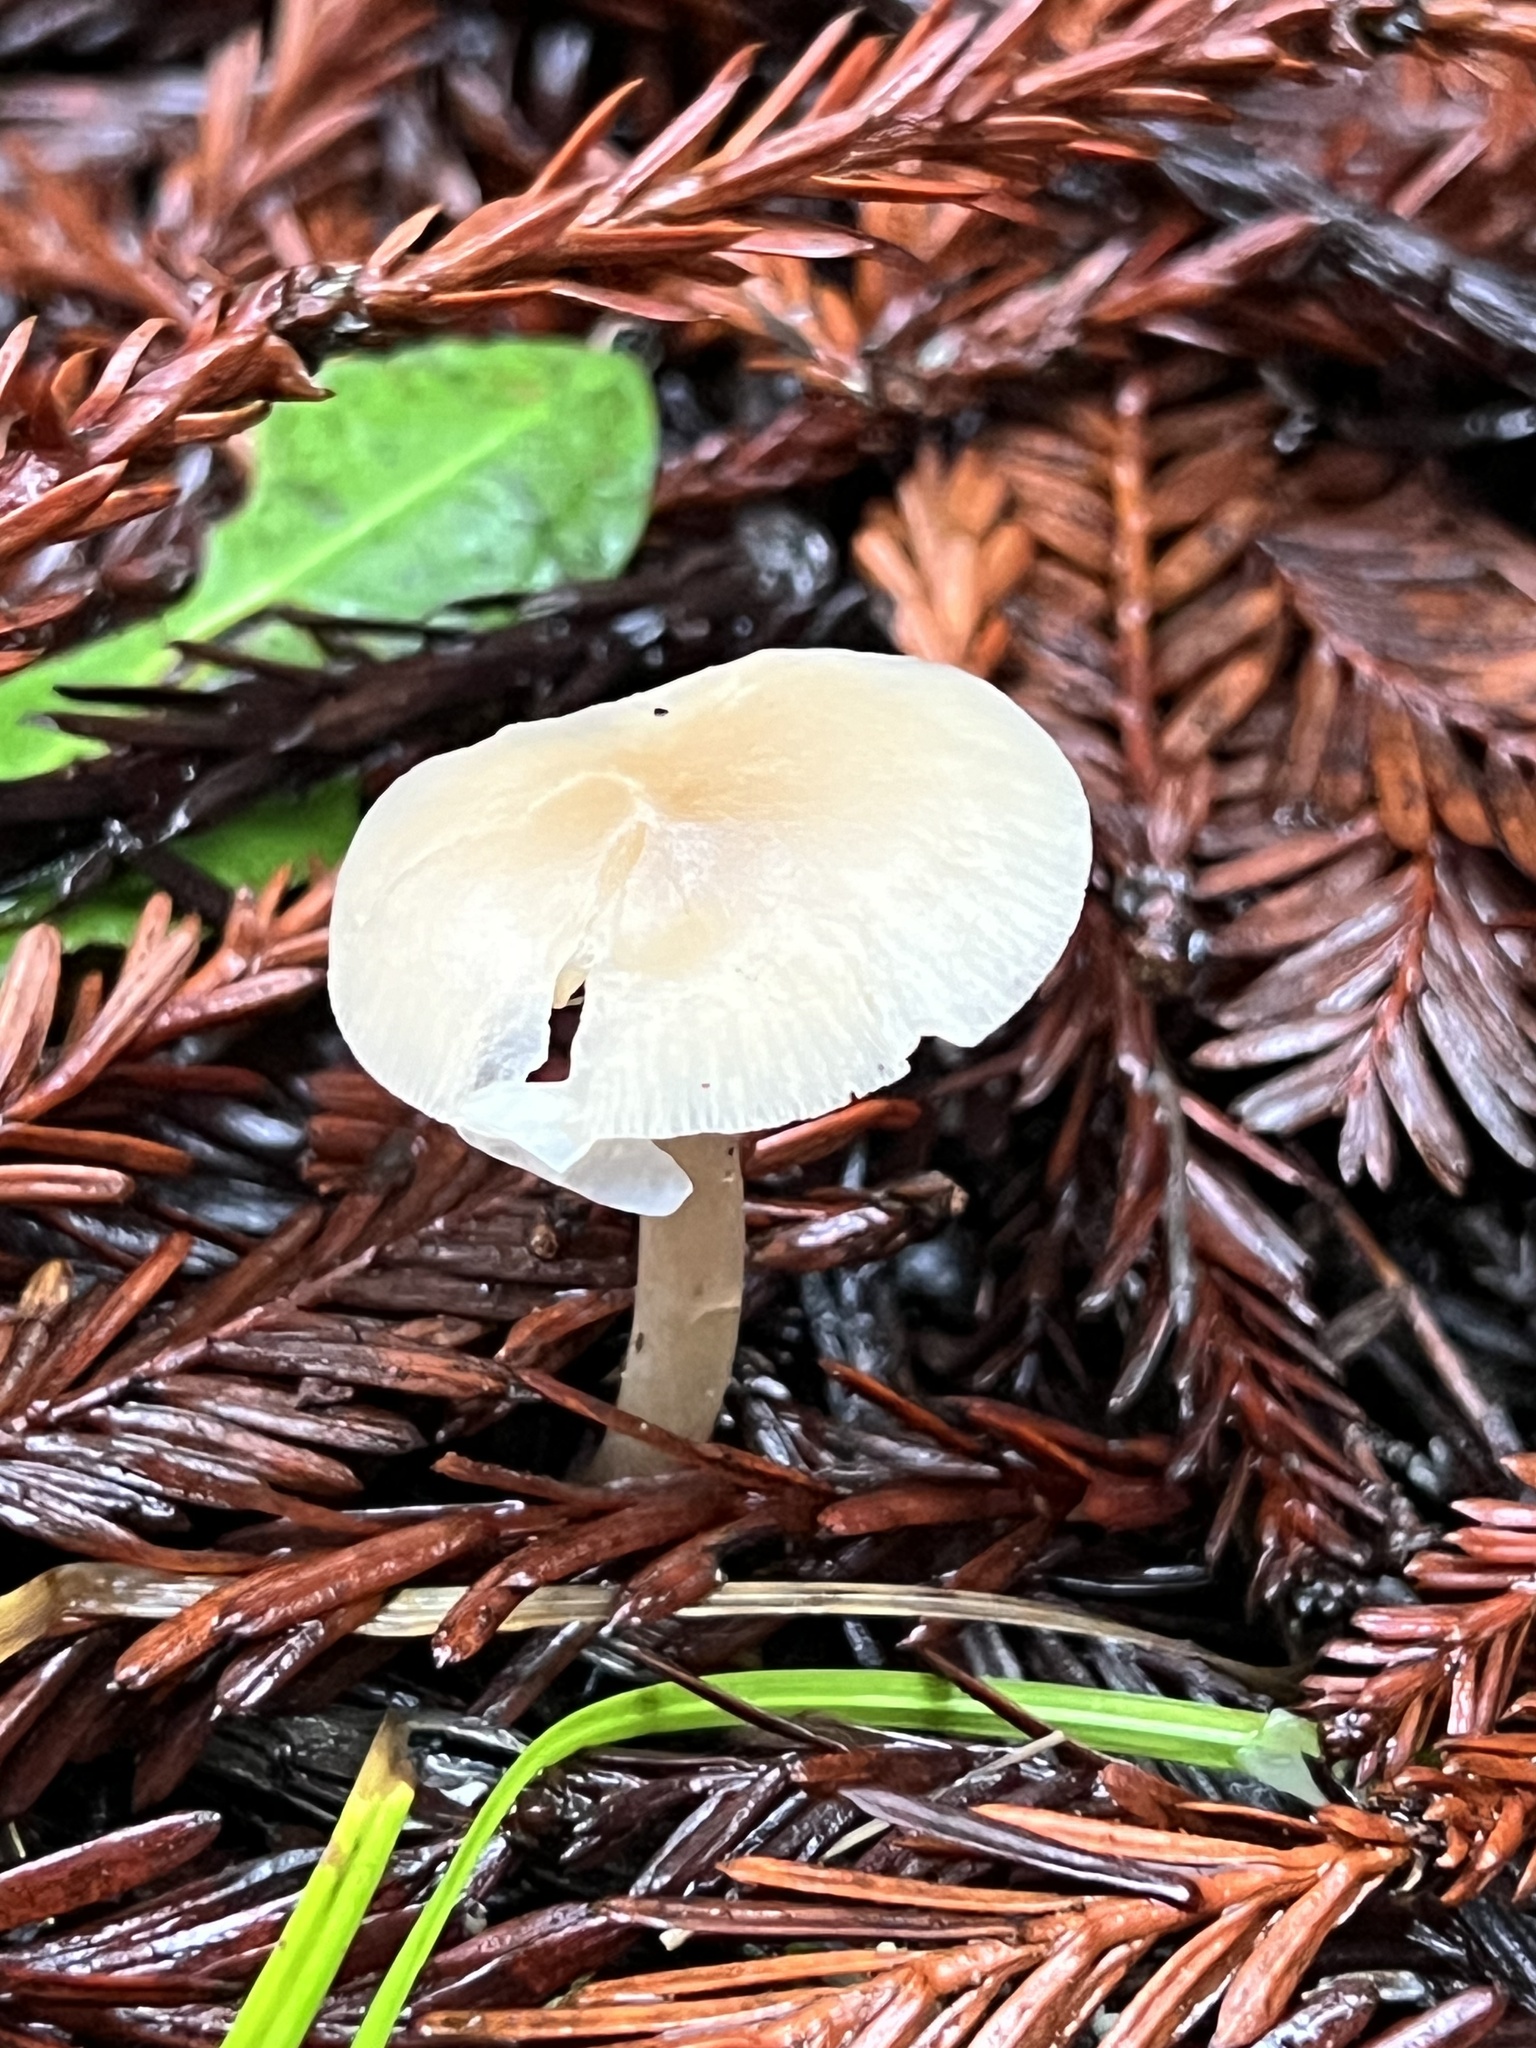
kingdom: Fungi
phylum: Basidiomycota
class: Agaricomycetes
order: Agaricales
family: Tricholomataceae
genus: Clitocybe
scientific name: Clitocybe fragrans
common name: Fragrant funnel
